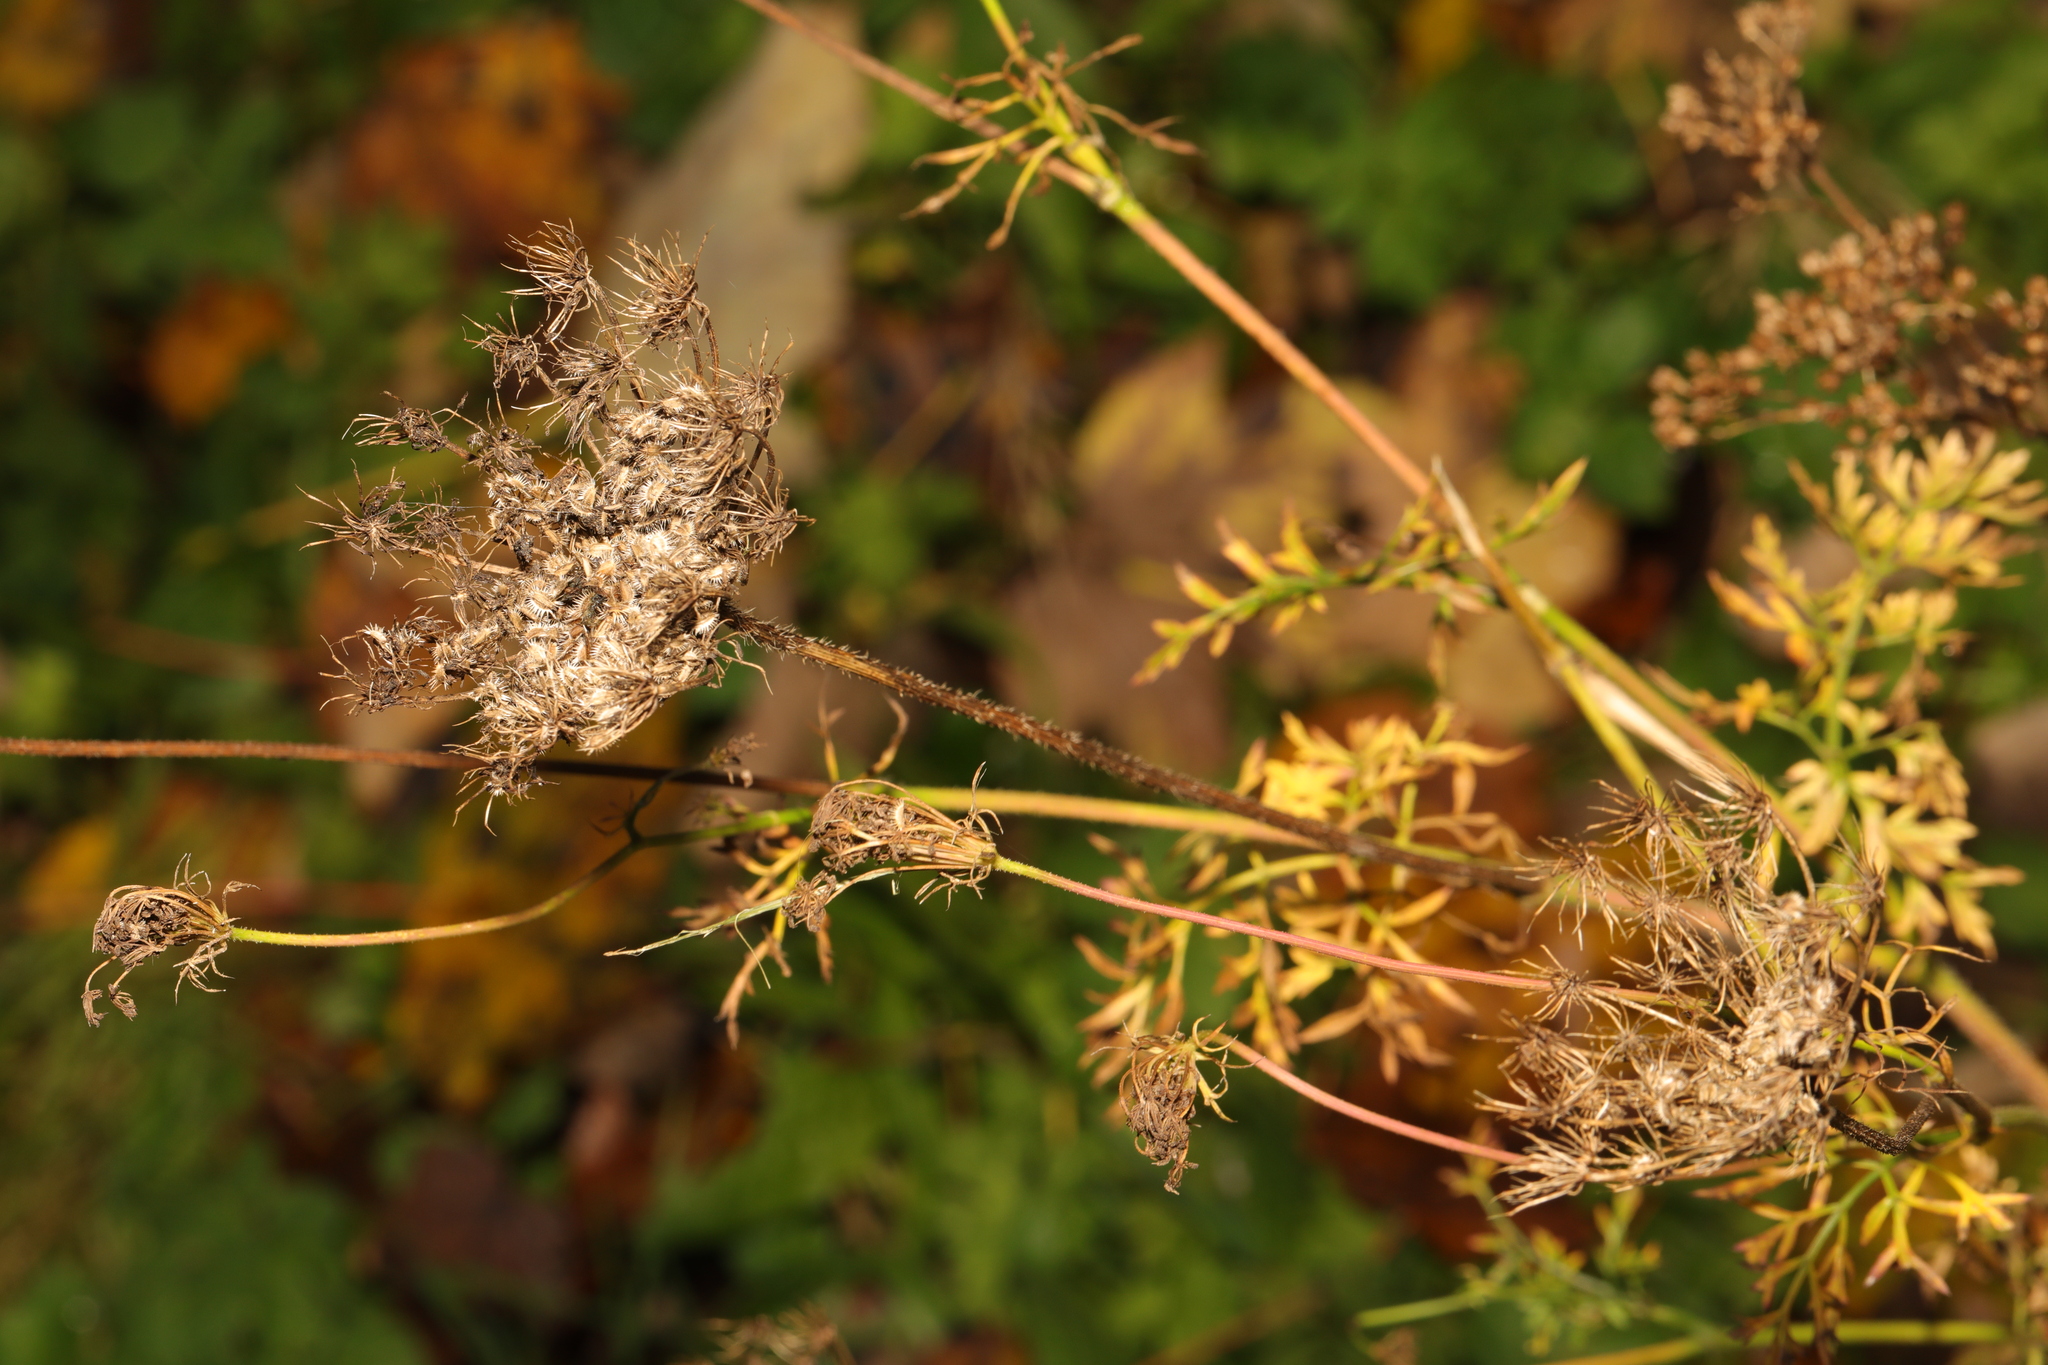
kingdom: Plantae
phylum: Tracheophyta
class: Magnoliopsida
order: Apiales
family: Apiaceae
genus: Daucus
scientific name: Daucus carota
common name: Wild carrot
